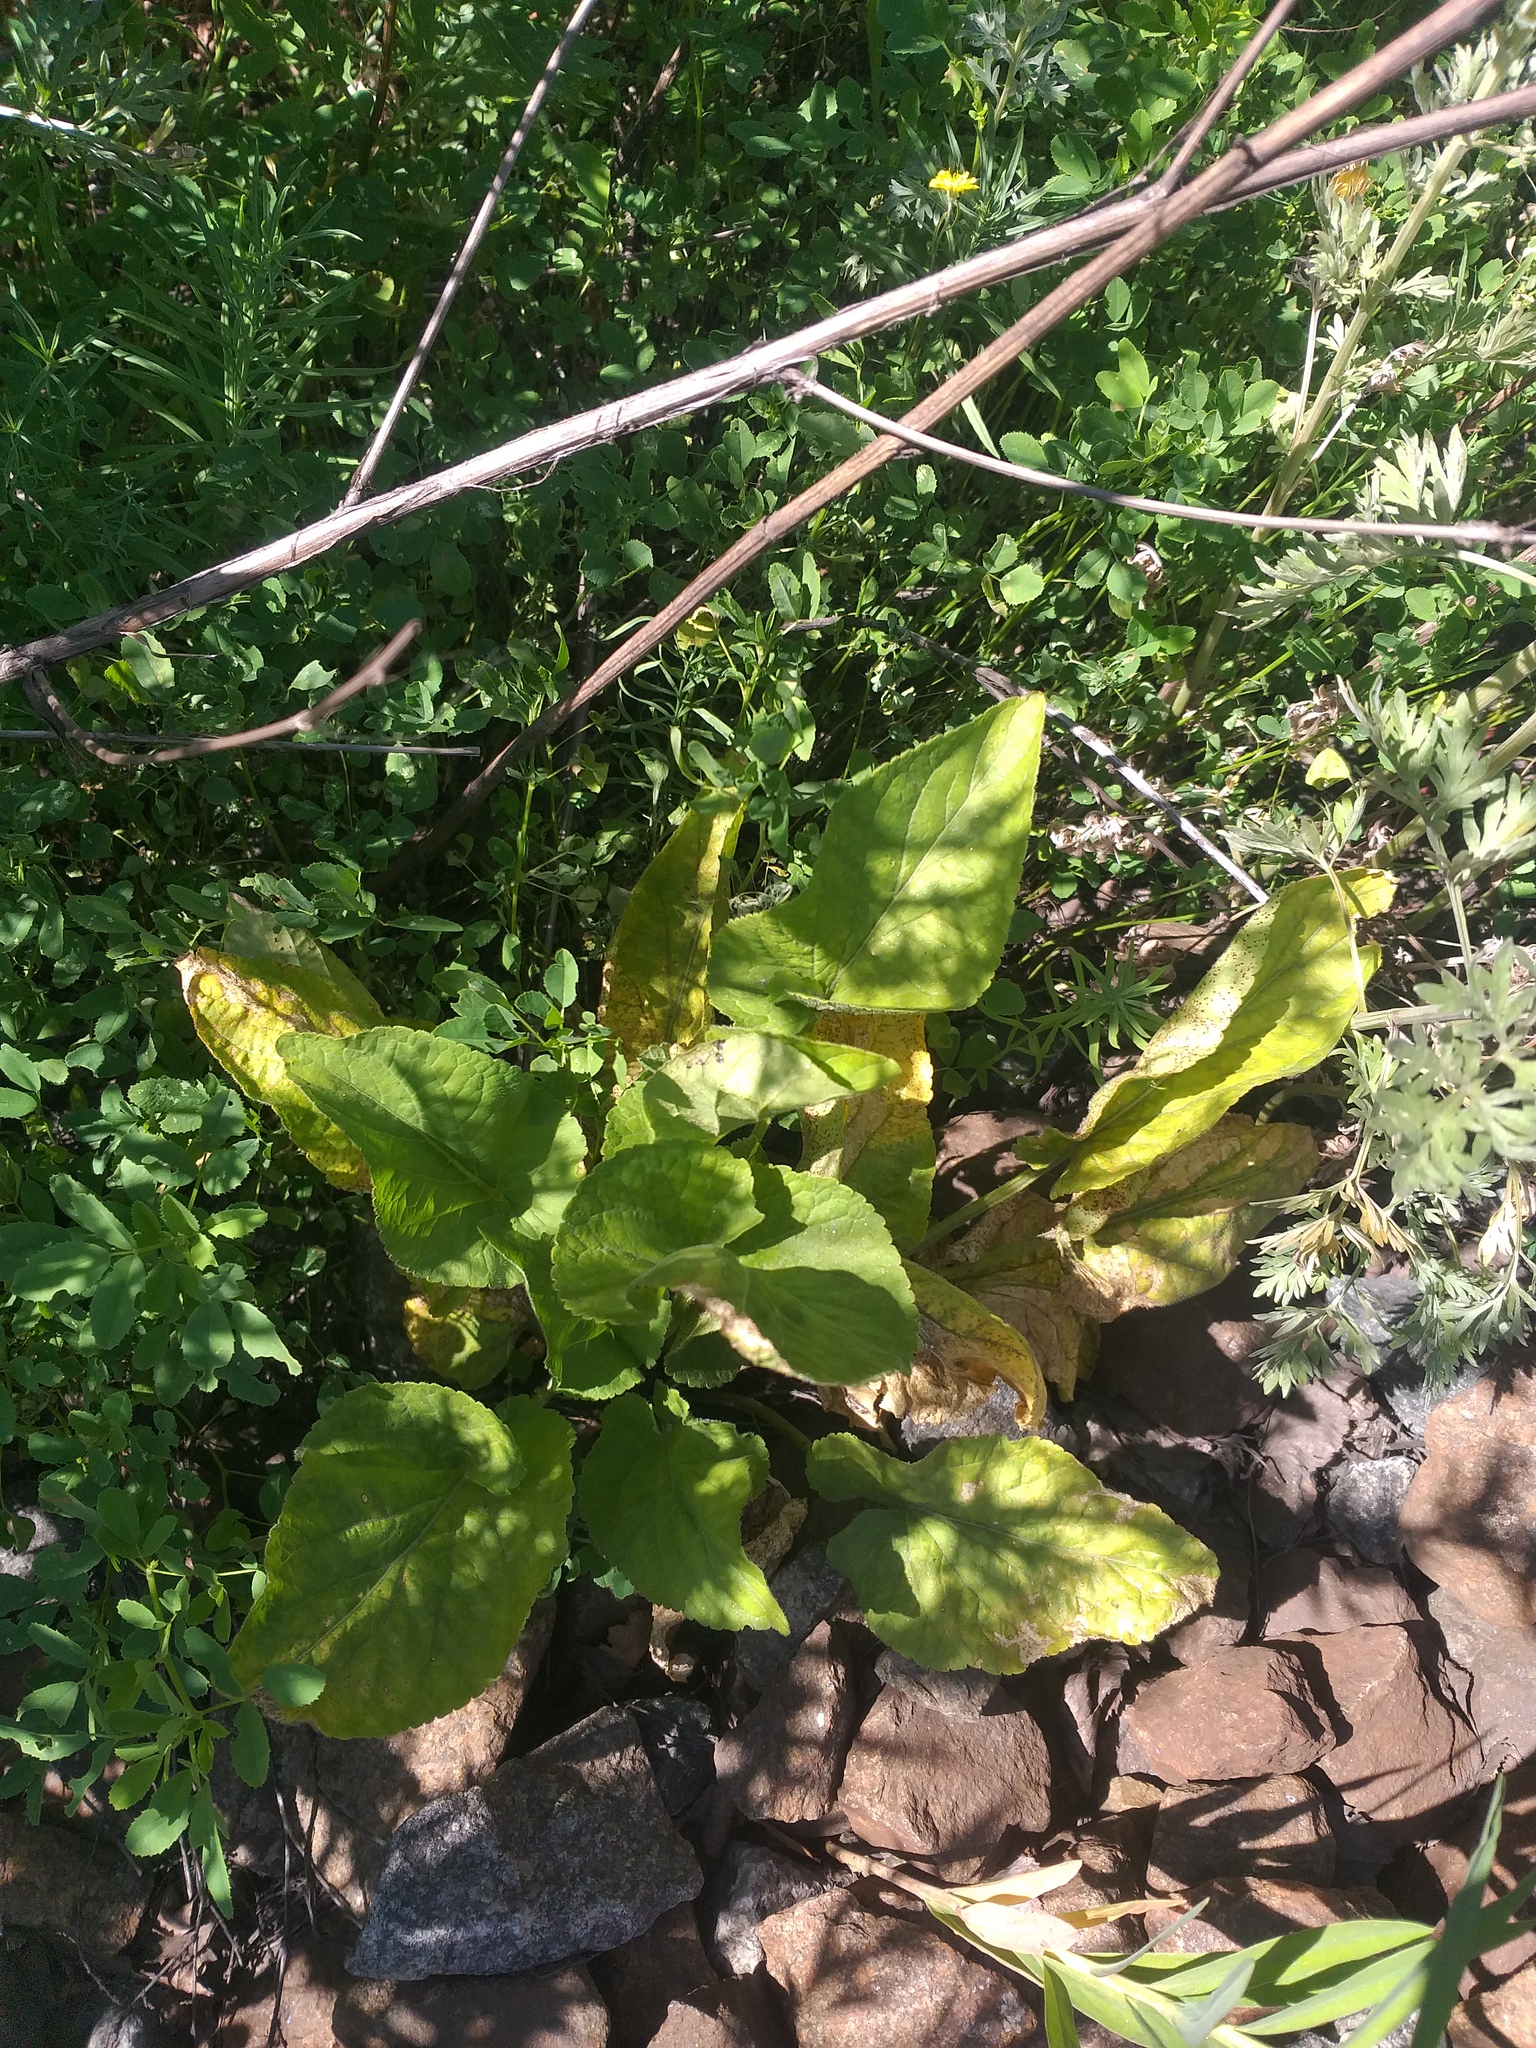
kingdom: Plantae
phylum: Tracheophyta
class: Magnoliopsida
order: Malpighiales
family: Violaceae
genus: Viola
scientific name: Viola hirta
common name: Hairy violet
